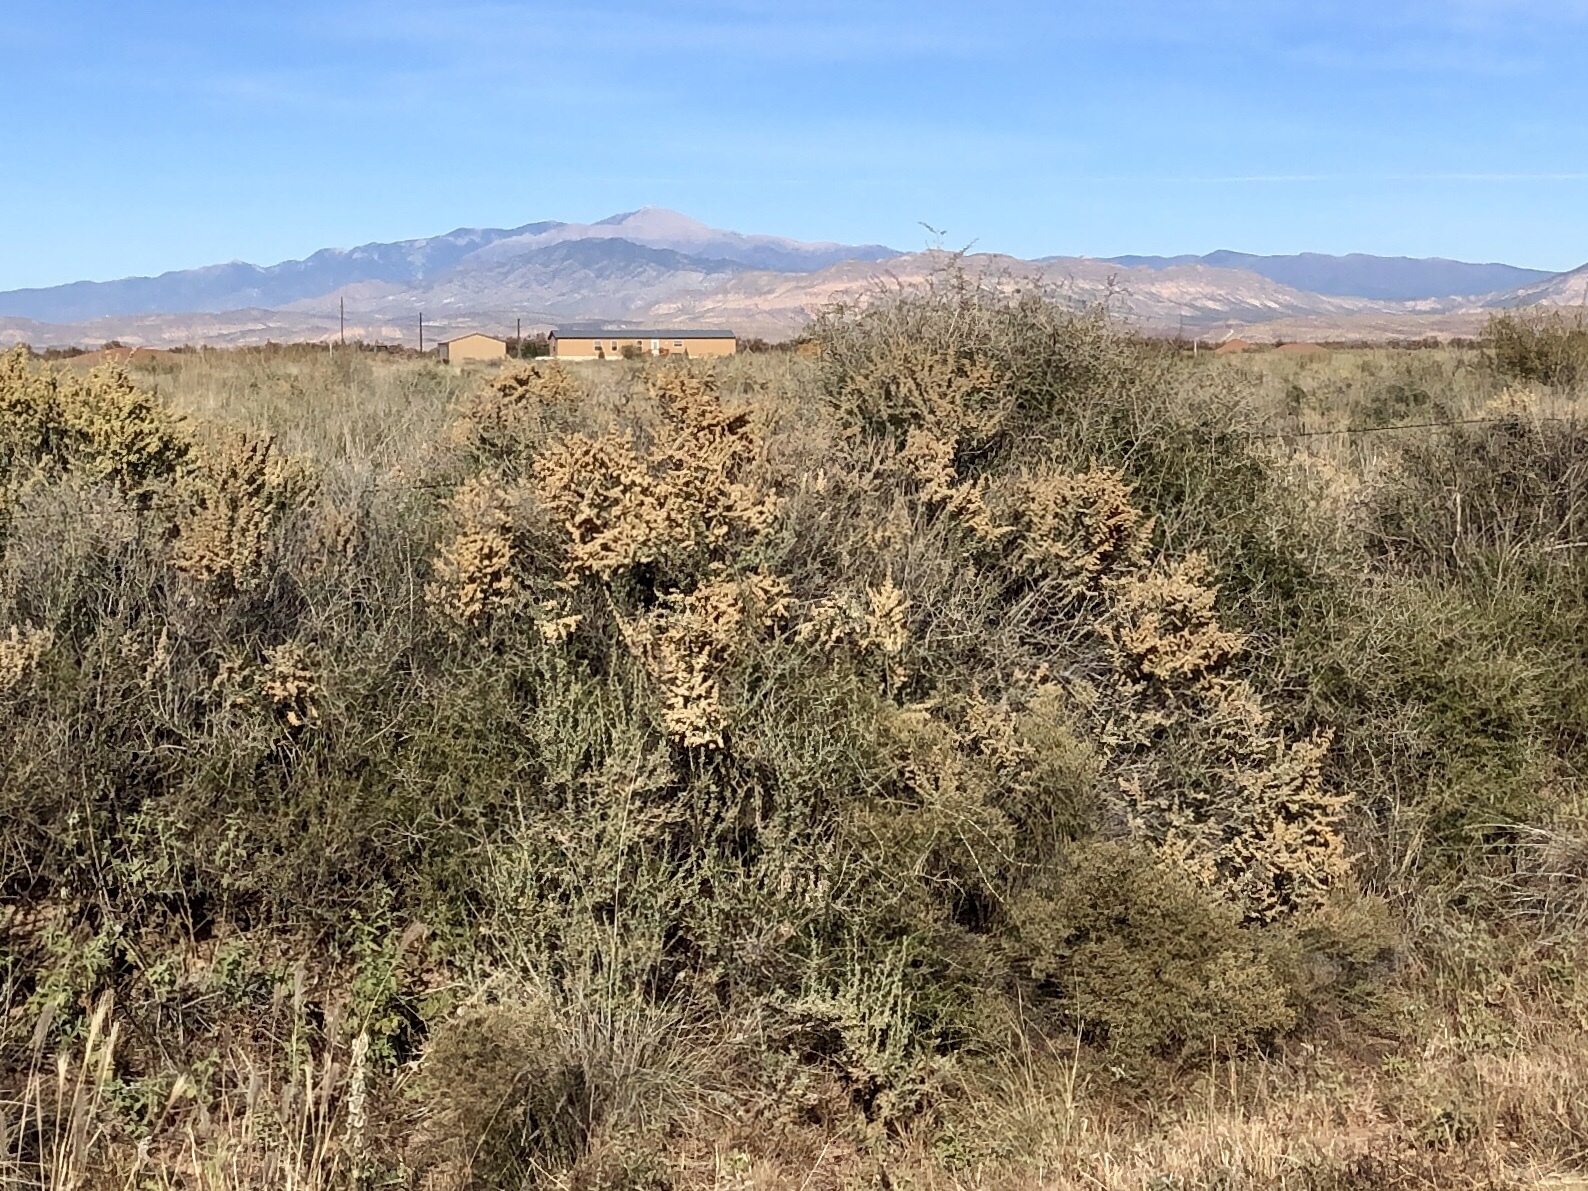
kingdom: Plantae
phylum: Tracheophyta
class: Magnoliopsida
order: Caryophyllales
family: Amaranthaceae
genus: Atriplex
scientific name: Atriplex canescens
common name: Four-wing saltbush
